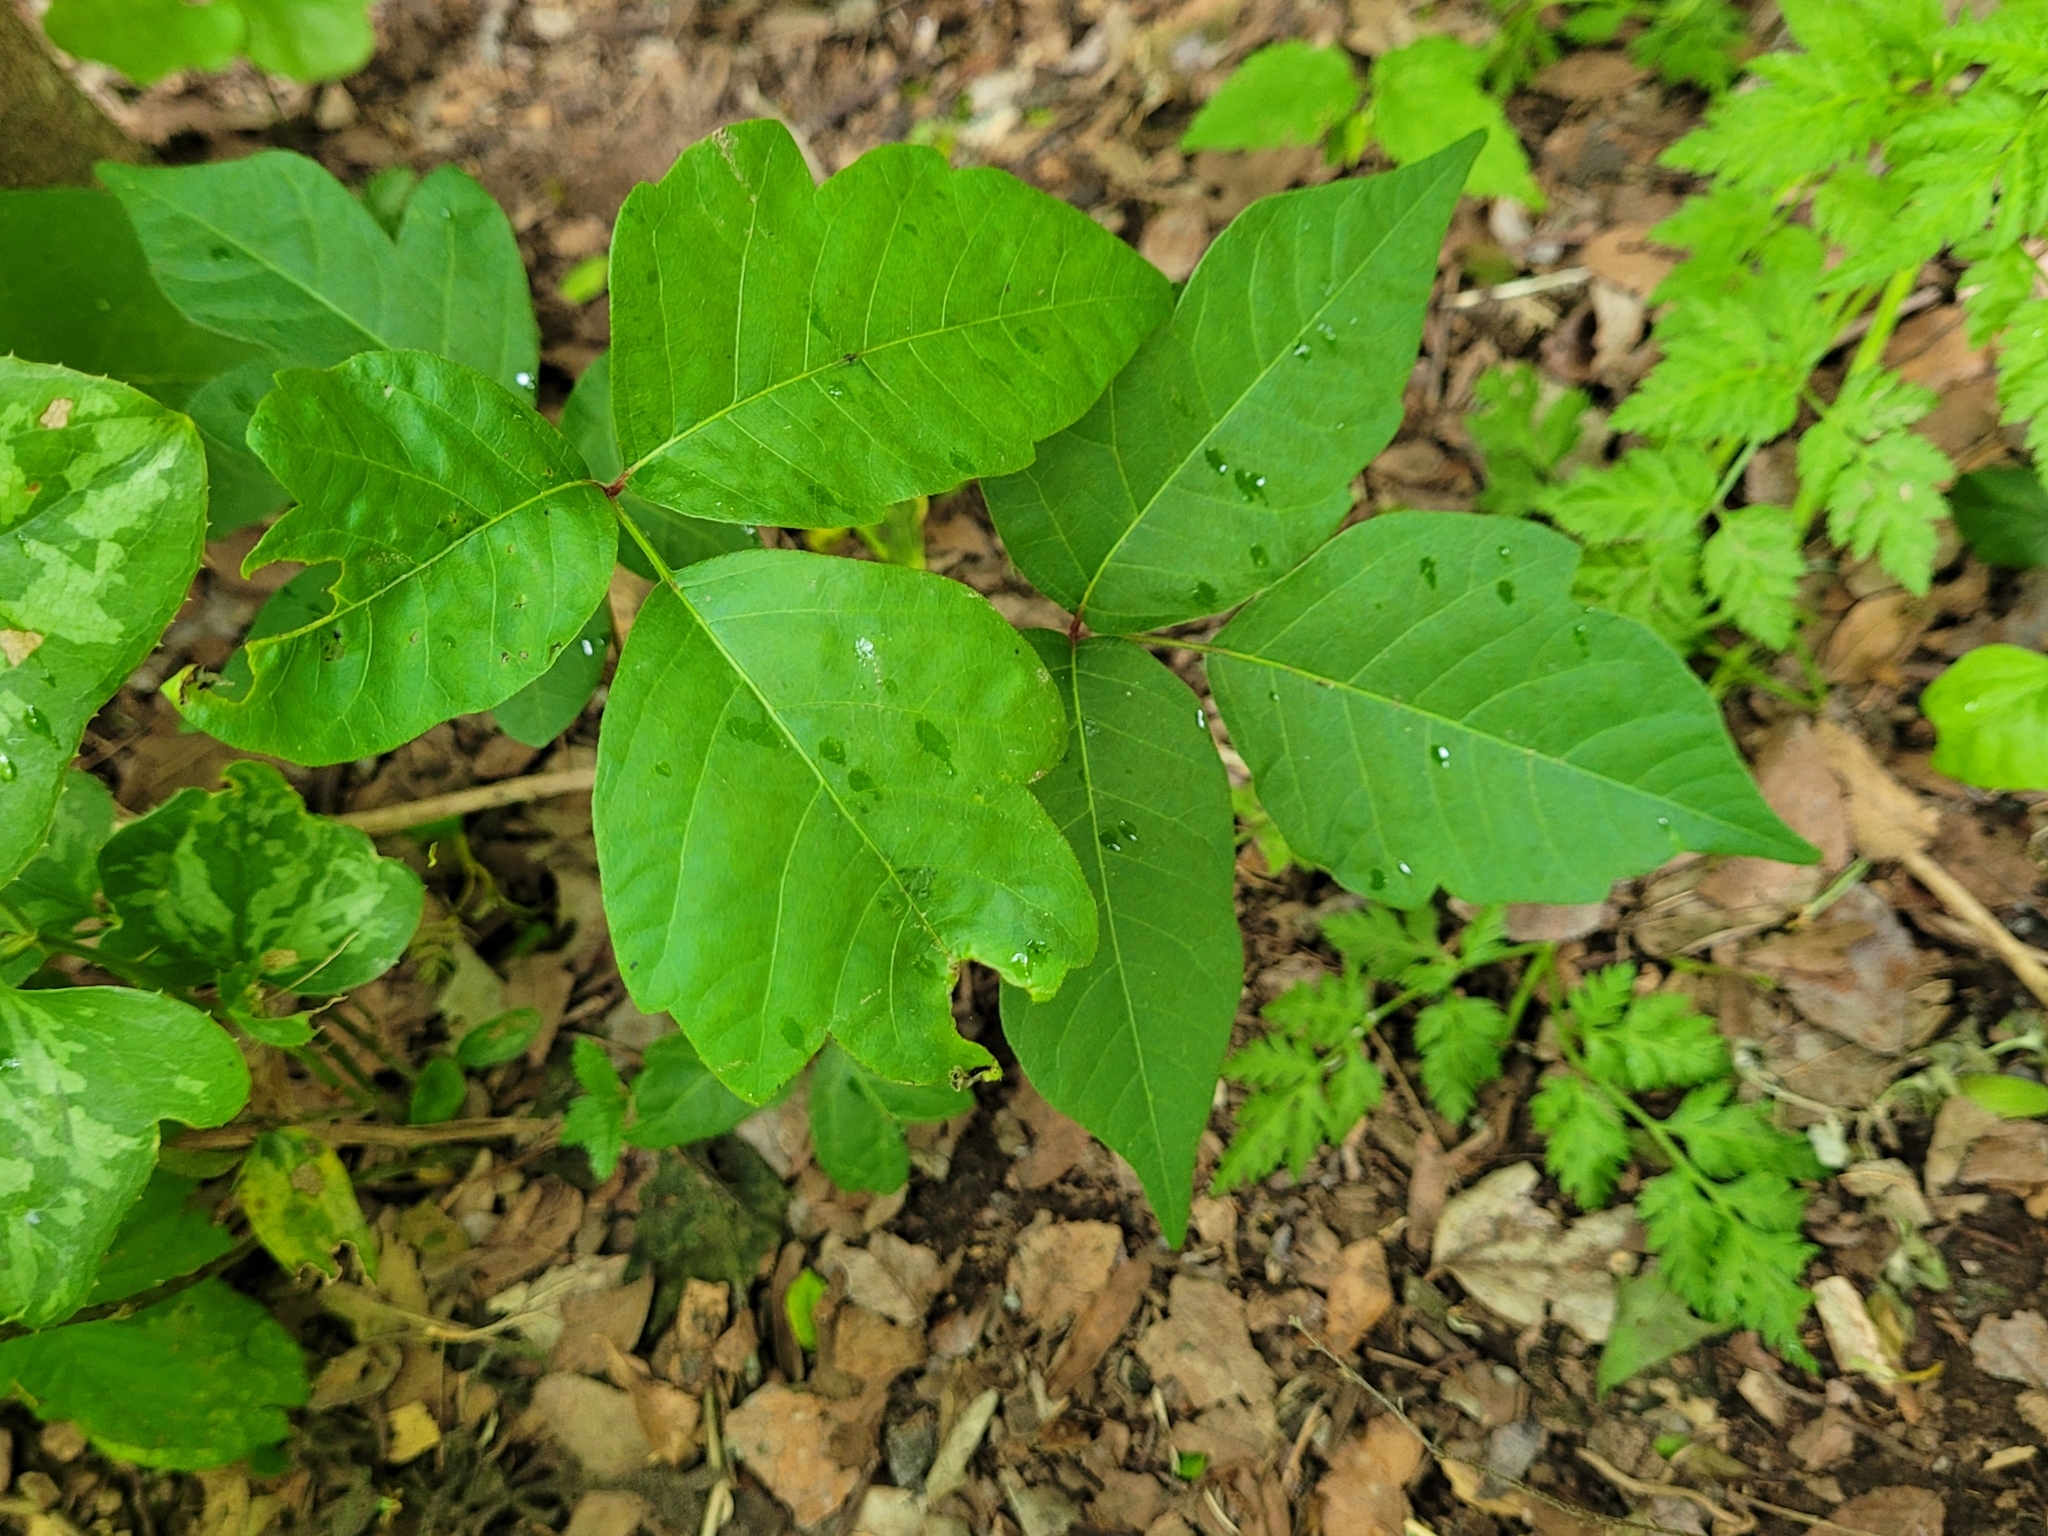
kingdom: Plantae
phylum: Tracheophyta
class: Magnoliopsida
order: Sapindales
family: Anacardiaceae
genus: Toxicodendron
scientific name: Toxicodendron radicans
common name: Poison ivy
